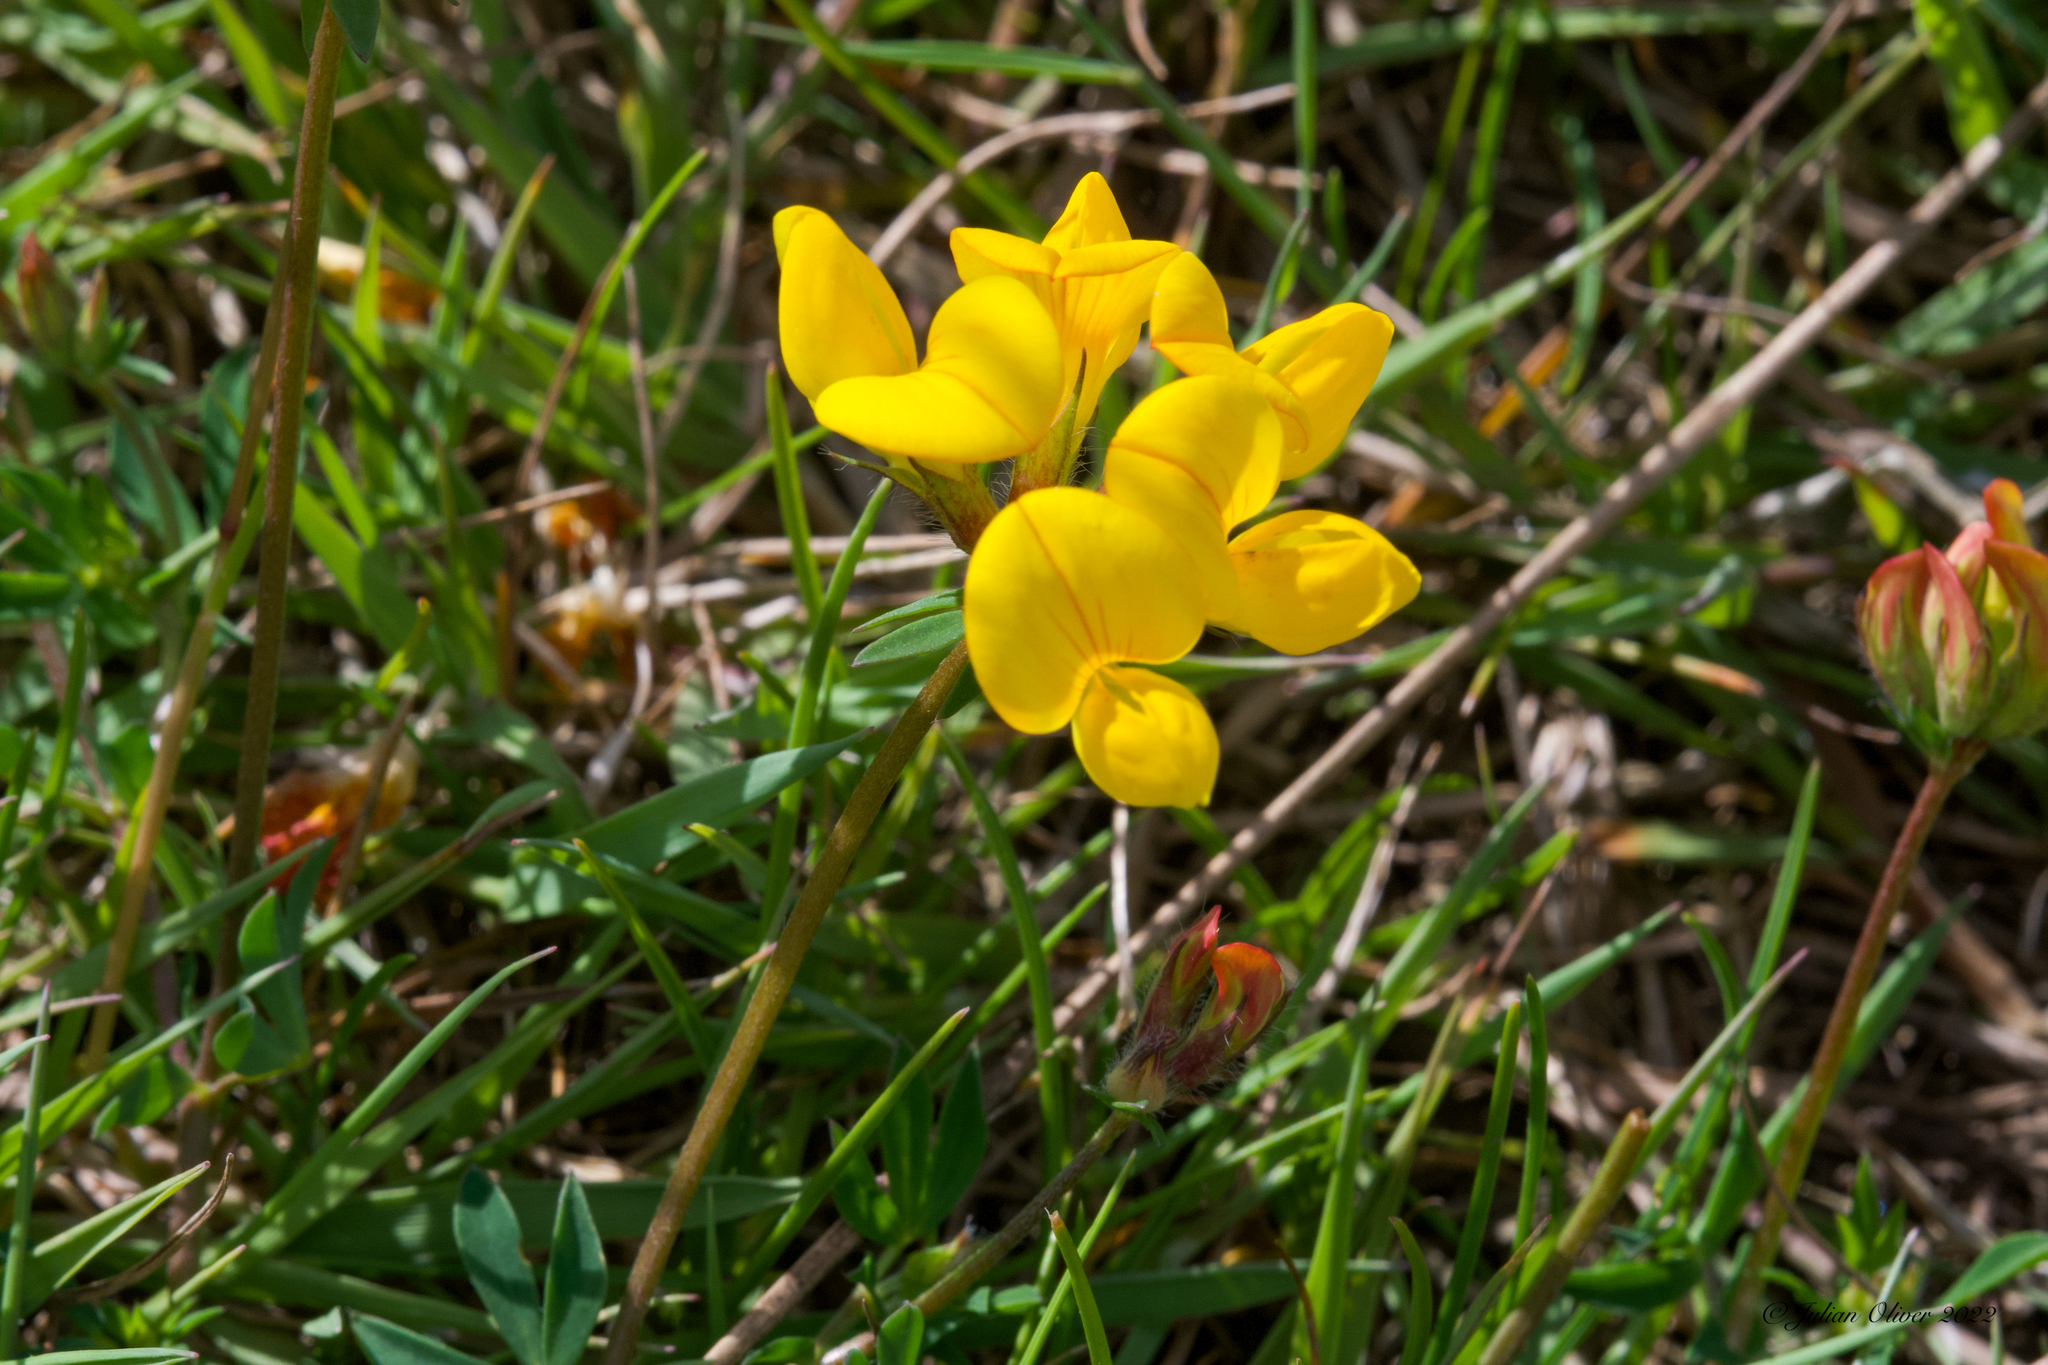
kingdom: Plantae
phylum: Tracheophyta
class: Magnoliopsida
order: Fabales
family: Fabaceae
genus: Lotus
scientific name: Lotus corniculatus
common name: Common bird's-foot-trefoil
